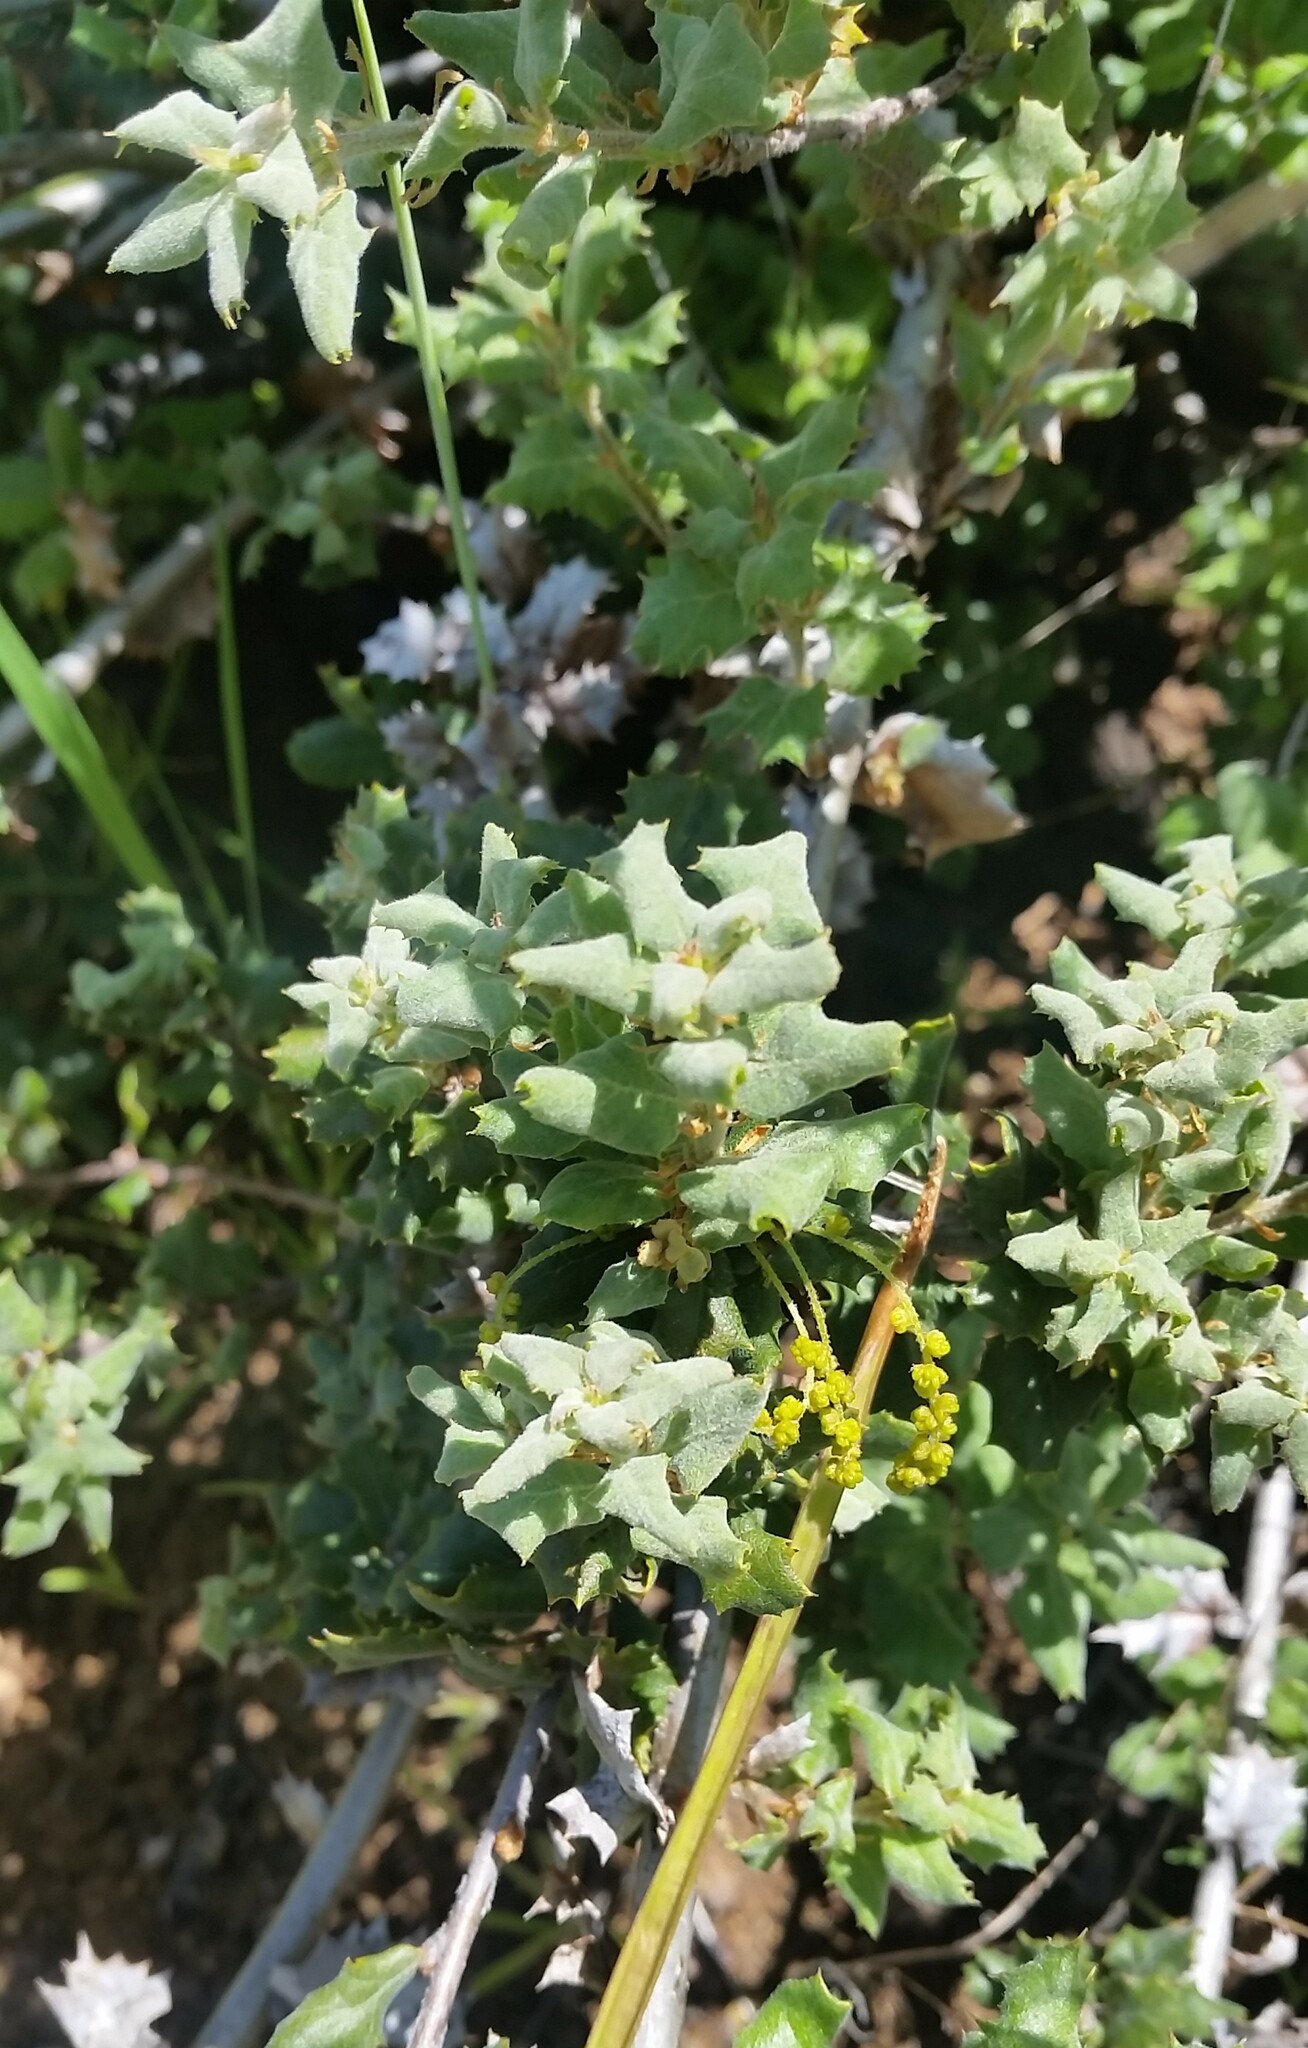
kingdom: Plantae
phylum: Tracheophyta
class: Magnoliopsida
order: Fagales
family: Fagaceae
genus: Quercus
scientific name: Quercus durata
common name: Leather oak
